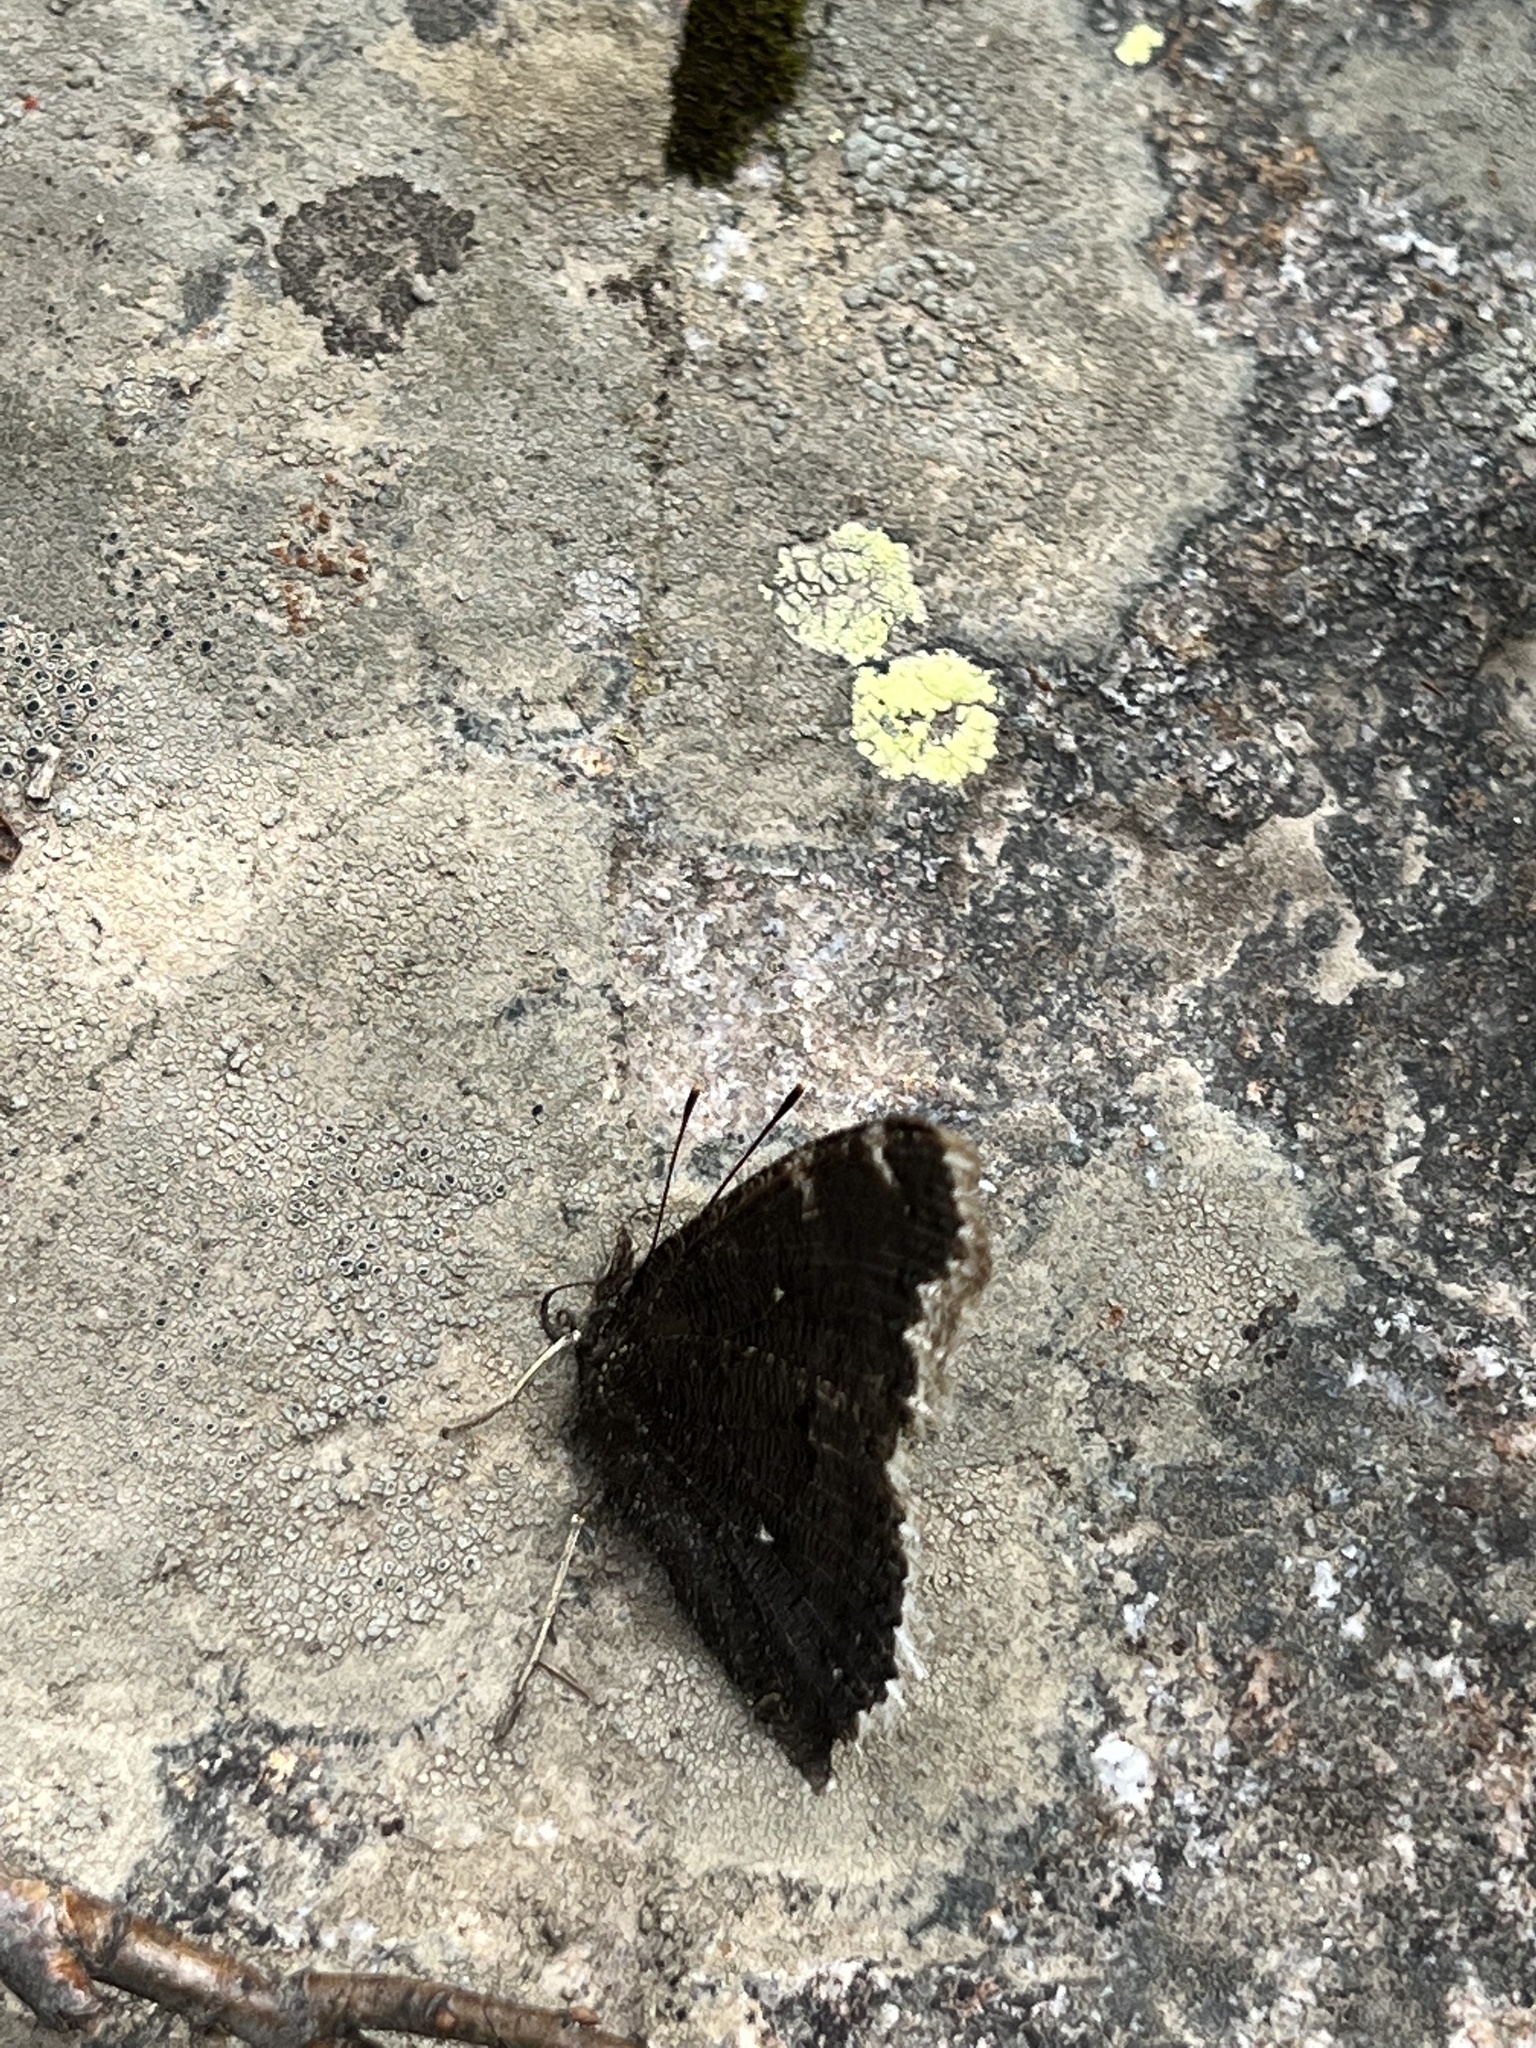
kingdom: Animalia
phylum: Arthropoda
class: Insecta
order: Lepidoptera
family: Nymphalidae
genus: Nymphalis
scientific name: Nymphalis antiopa
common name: Camberwell beauty
